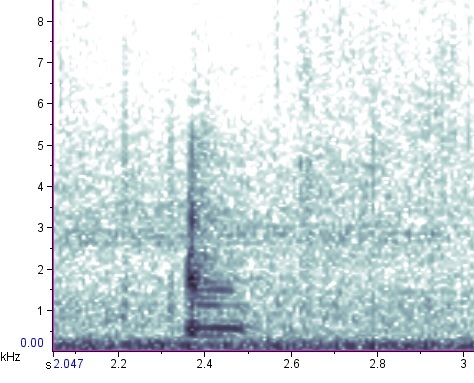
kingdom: Animalia
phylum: Chordata
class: Amphibia
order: Anura
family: Ranidae
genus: Lithobates
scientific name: Lithobates clamitans
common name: Green frog
